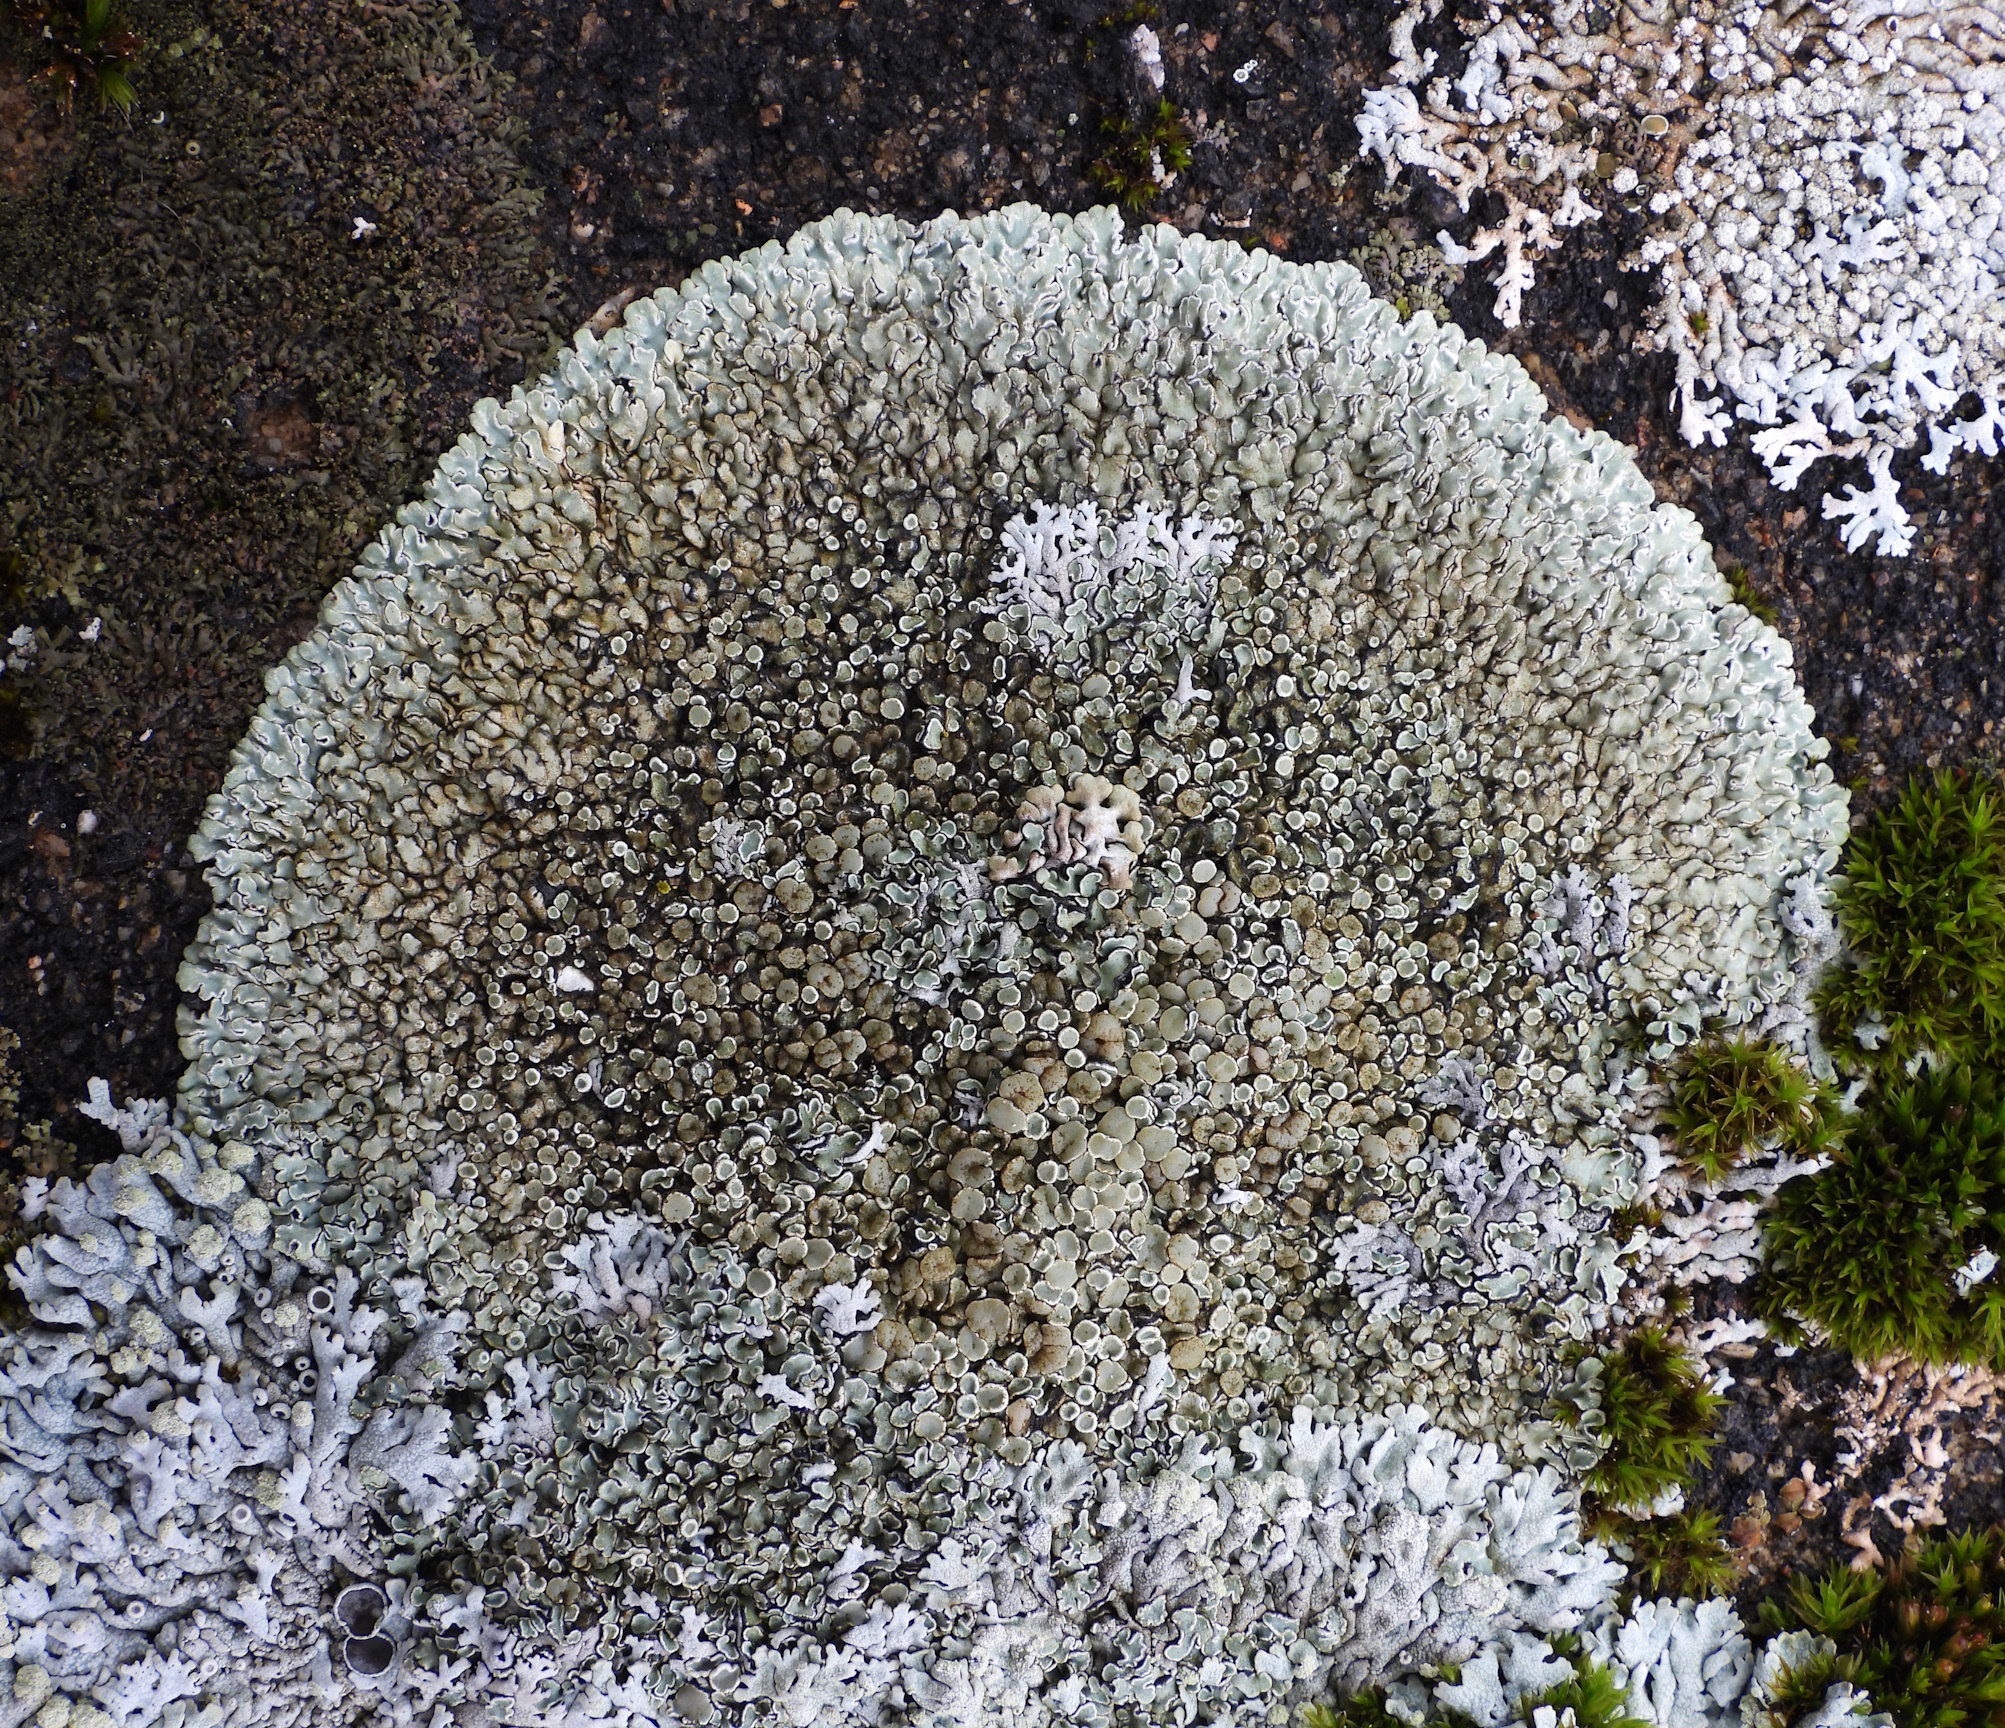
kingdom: Fungi
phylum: Ascomycota
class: Lecanoromycetes
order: Lecanorales
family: Lecanoraceae
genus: Protoparmeliopsis
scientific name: Protoparmeliopsis muralis
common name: Stonewall rim lichen
